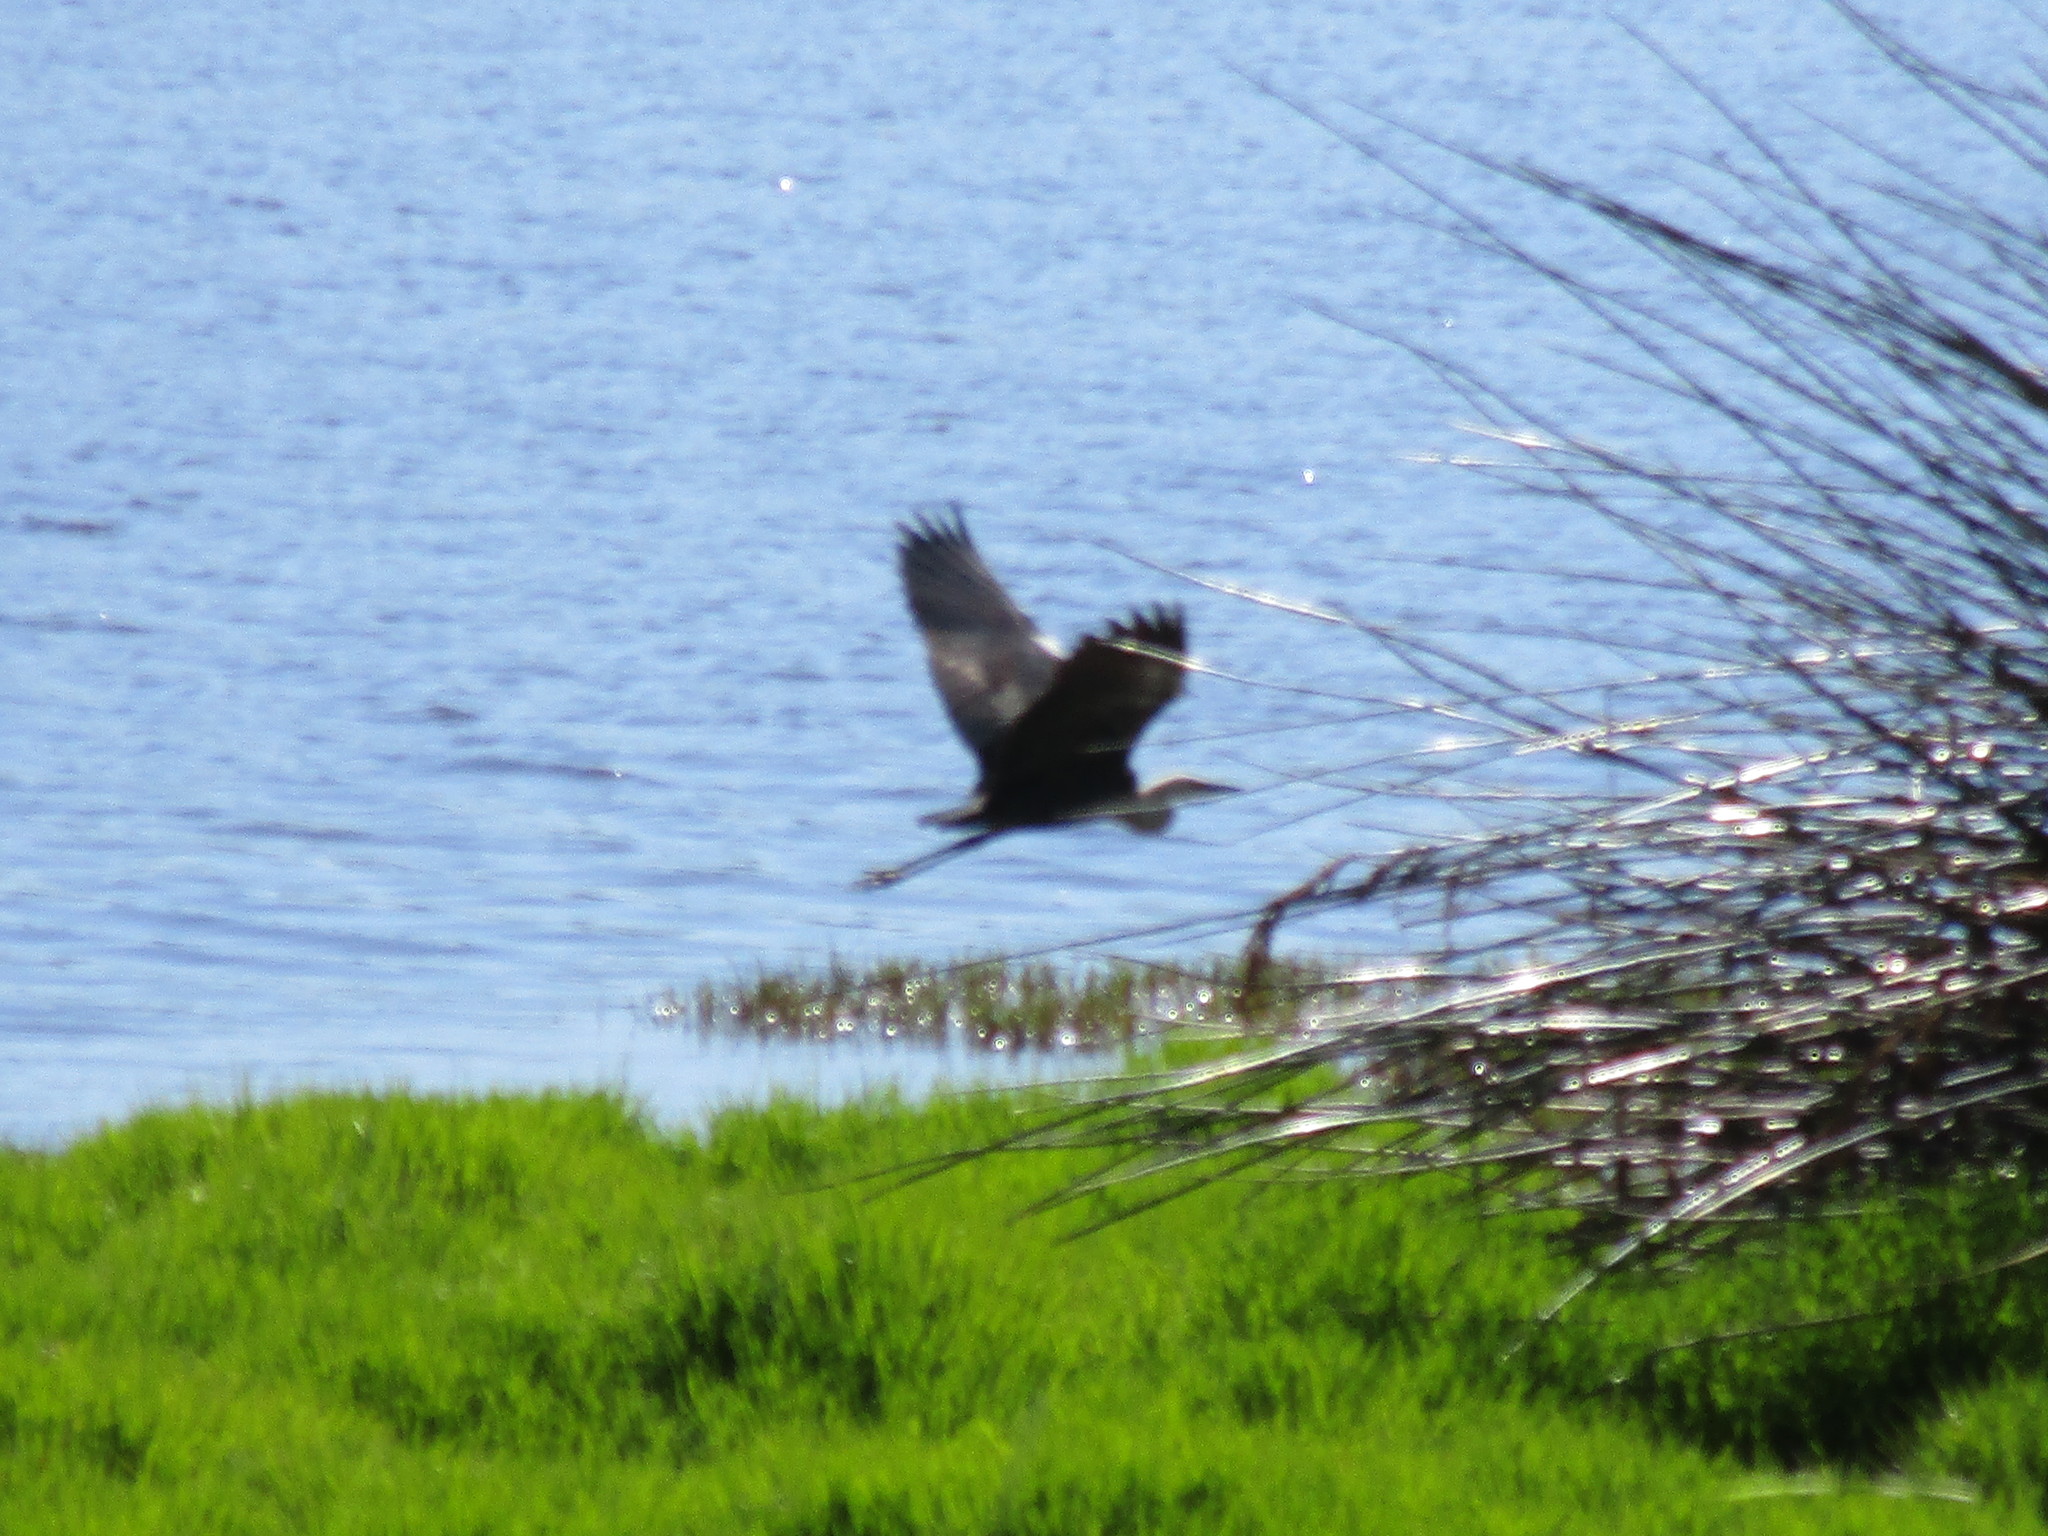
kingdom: Animalia
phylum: Chordata
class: Aves
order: Pelecaniformes
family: Ardeidae
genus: Ardea
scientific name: Ardea pacifica
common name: White-necked heron
